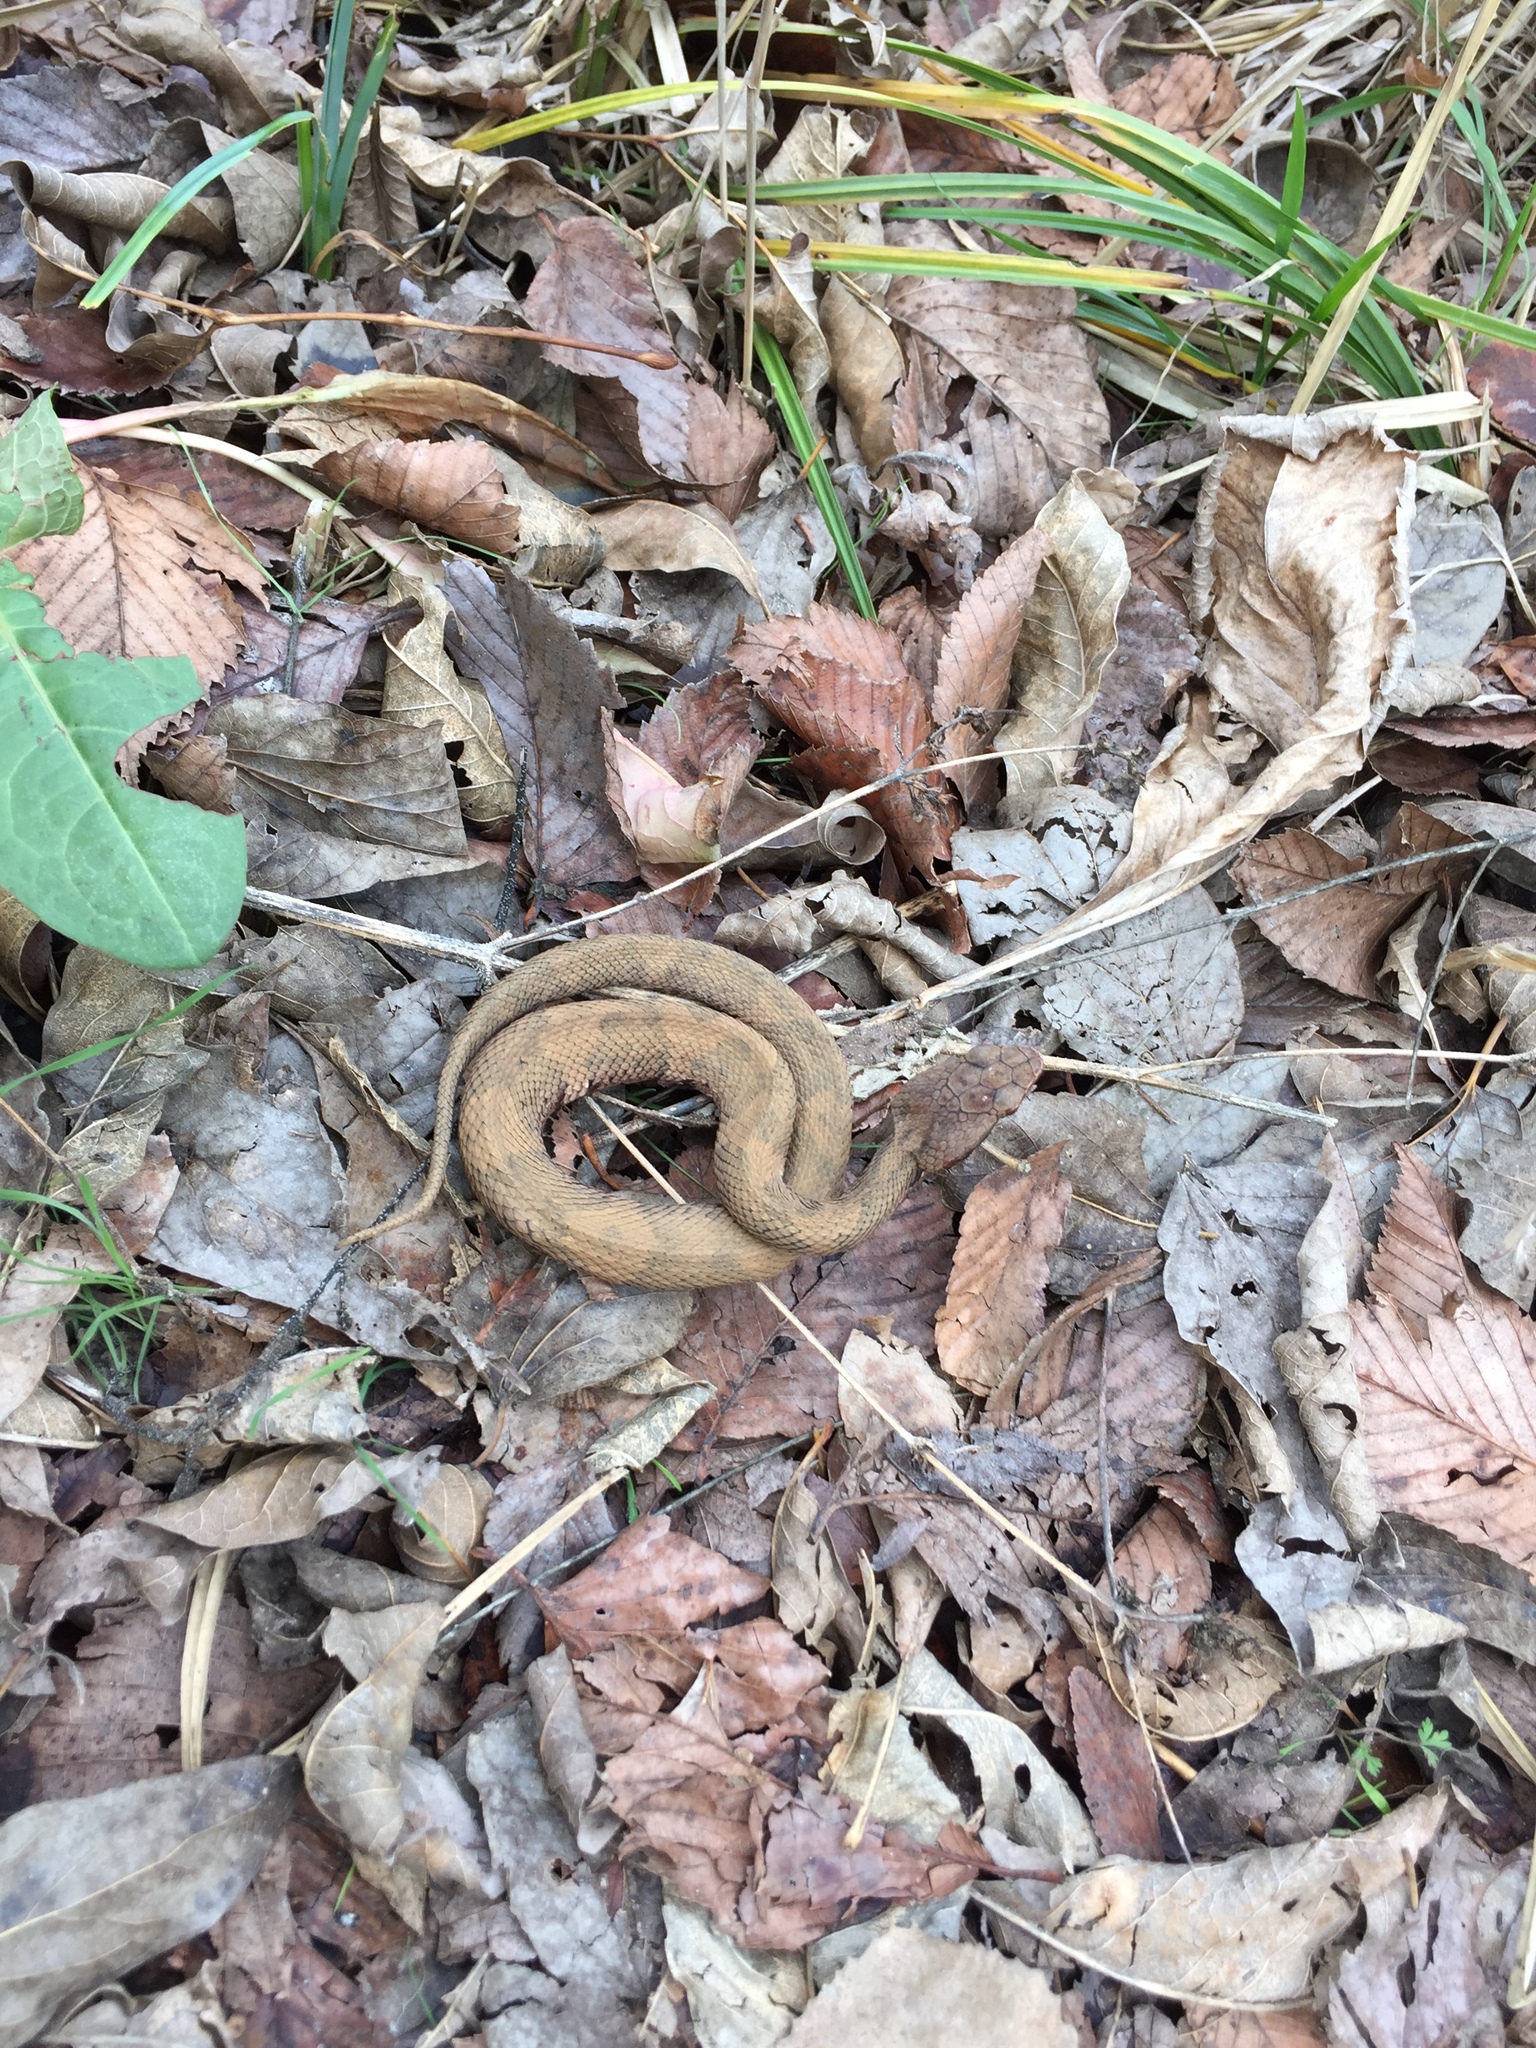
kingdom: Animalia
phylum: Chordata
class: Squamata
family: Viperidae
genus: Agkistrodon
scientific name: Agkistrodon piscivorus
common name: Cottonmouth
